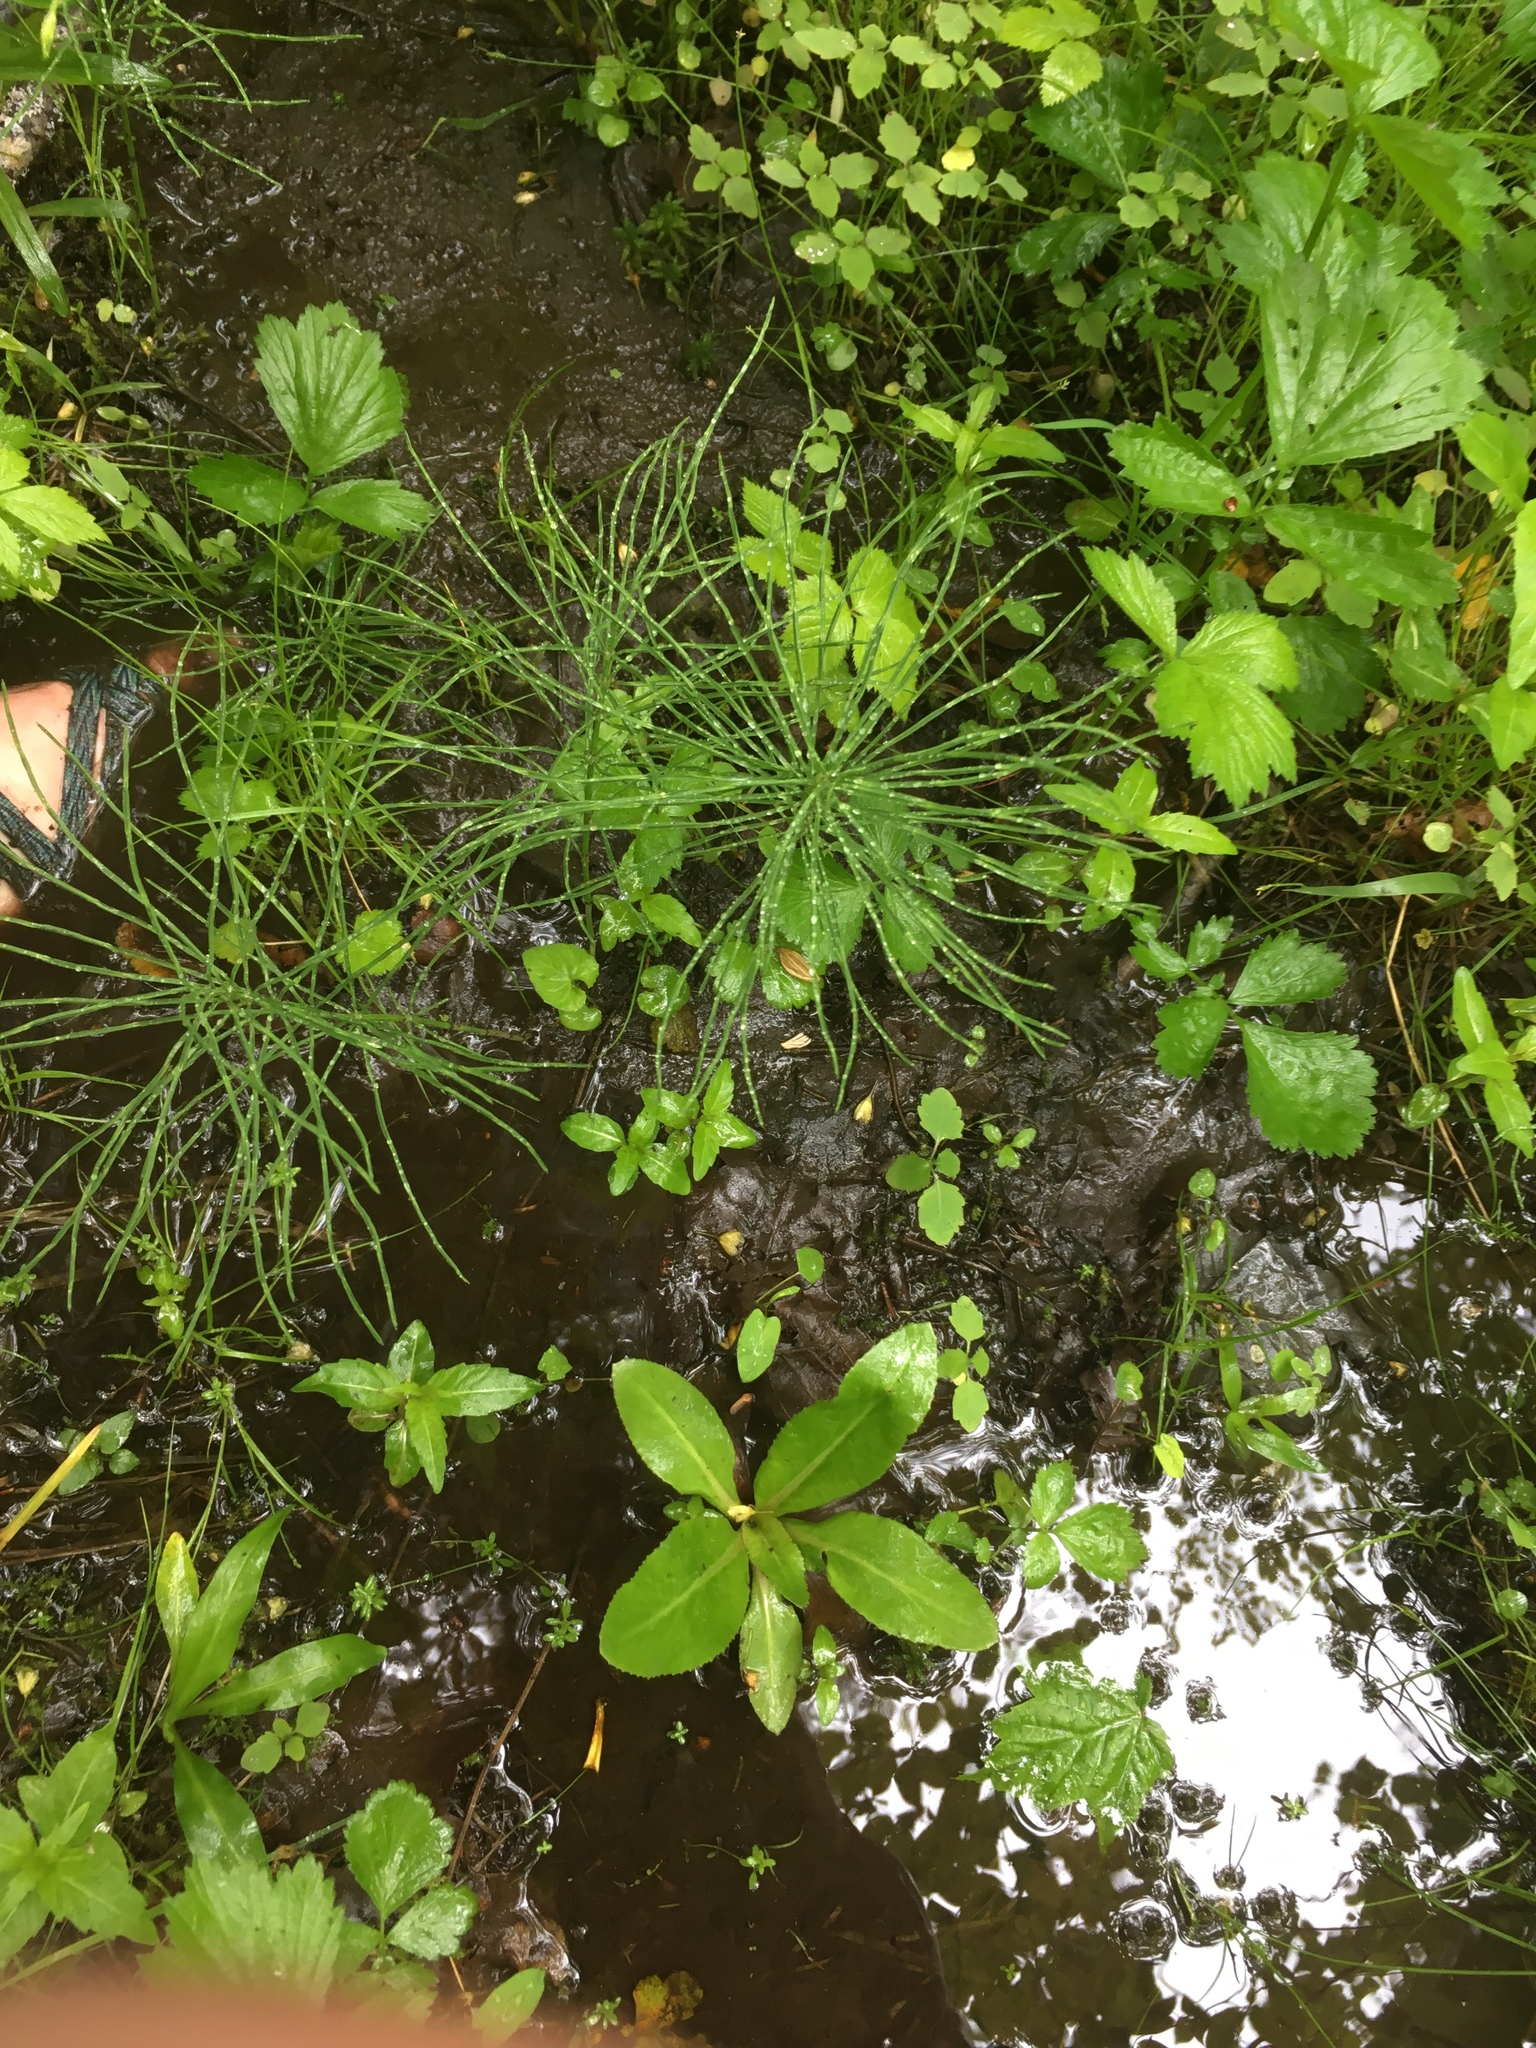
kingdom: Plantae
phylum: Tracheophyta
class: Polypodiopsida
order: Equisetales
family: Equisetaceae
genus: Equisetum
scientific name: Equisetum arvense
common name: Field horsetail
